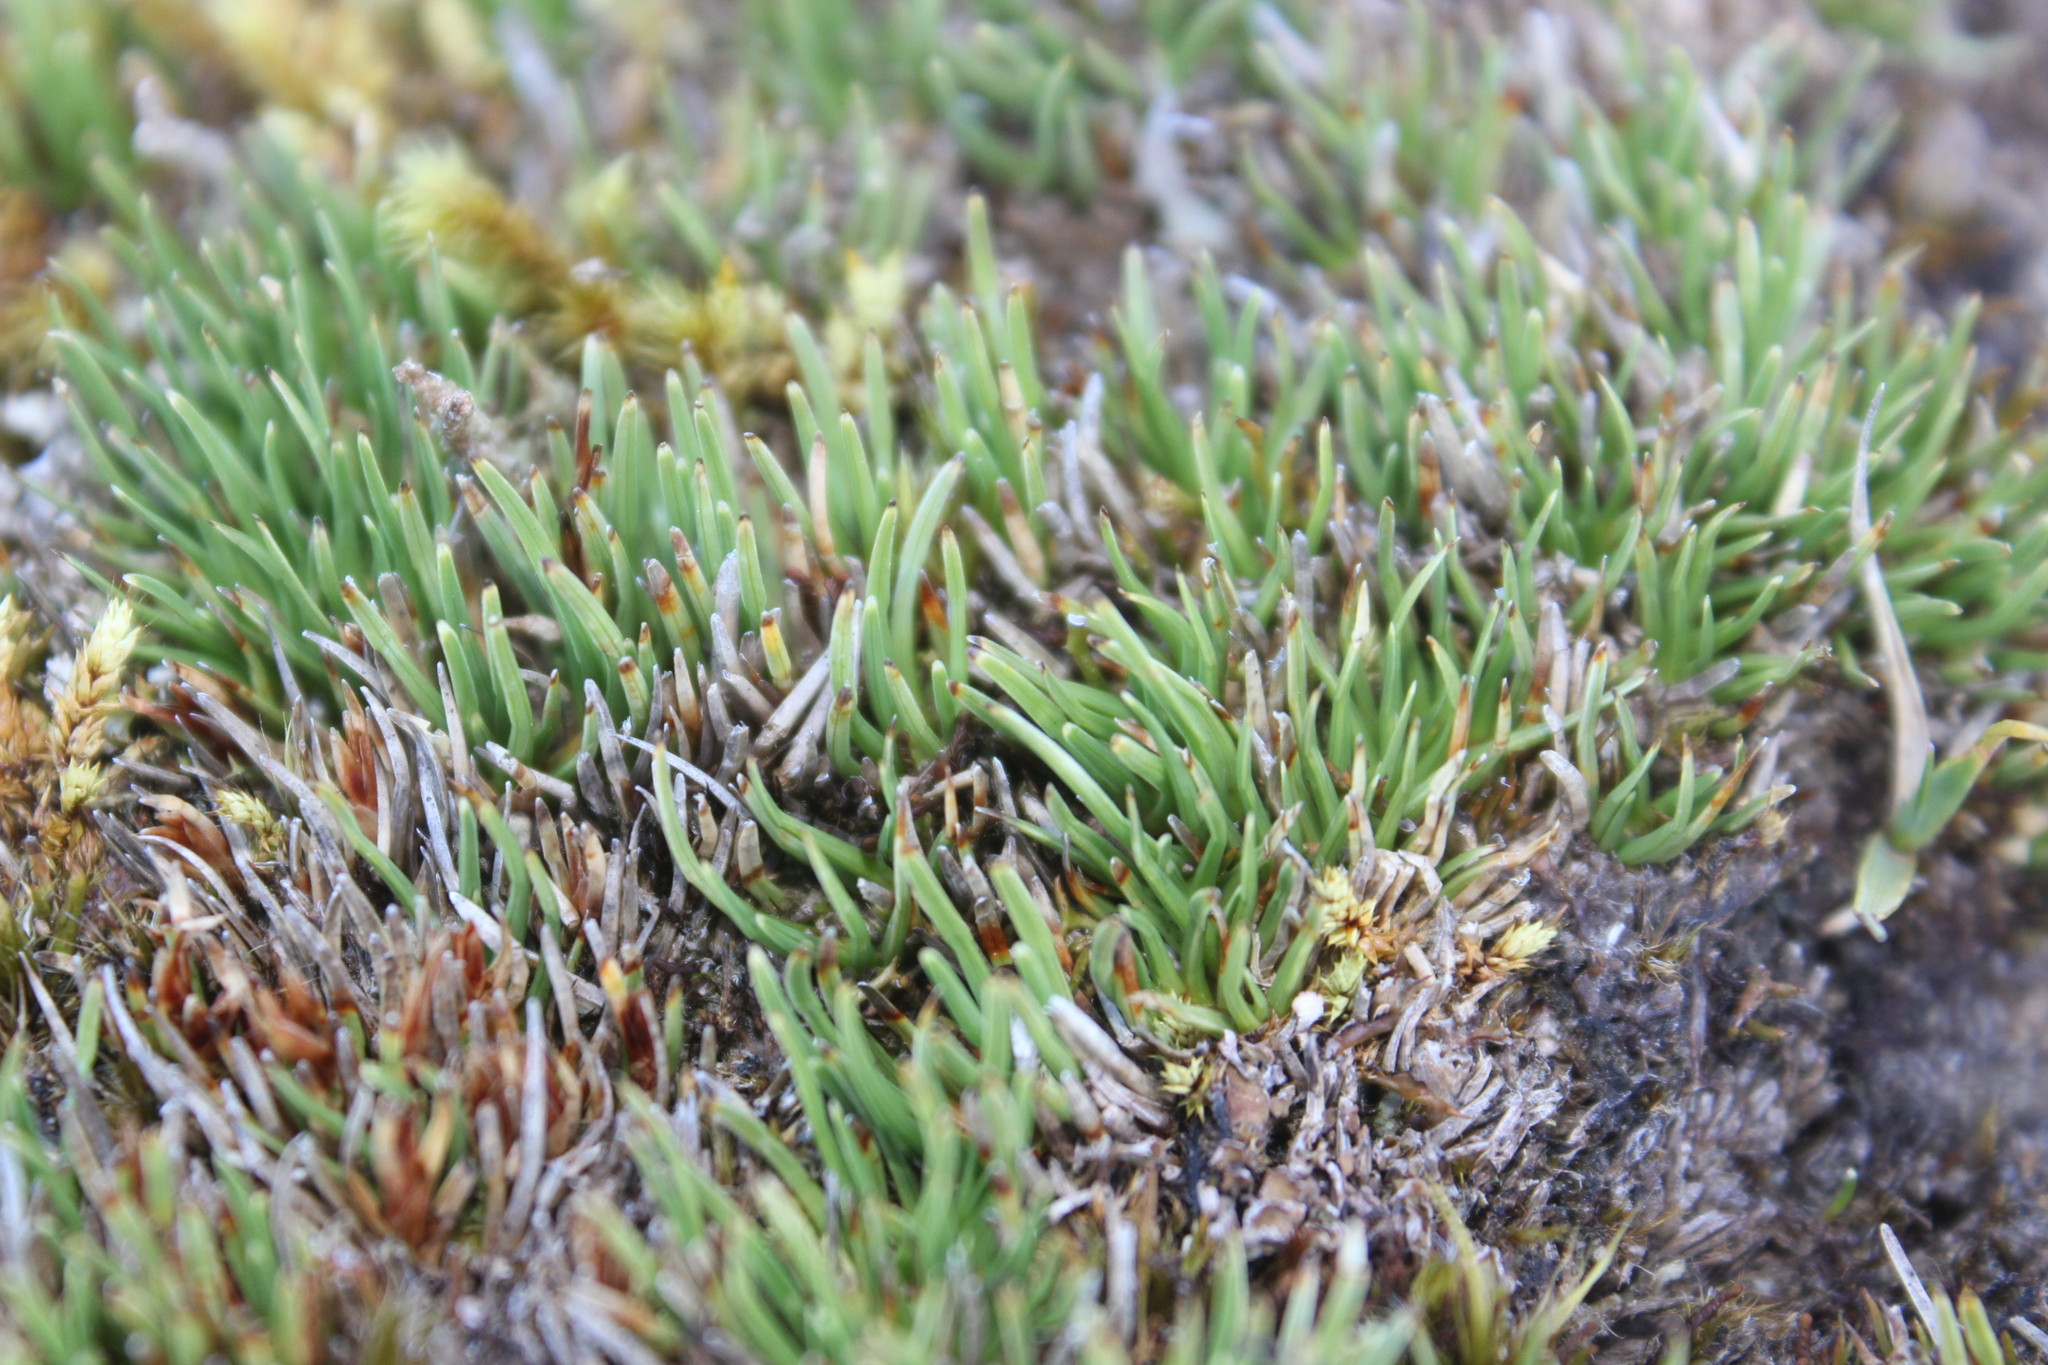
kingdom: Plantae
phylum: Tracheophyta
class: Liliopsida
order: Poales
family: Cyperaceae
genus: Oreobolus
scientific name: Oreobolus pectinatus
